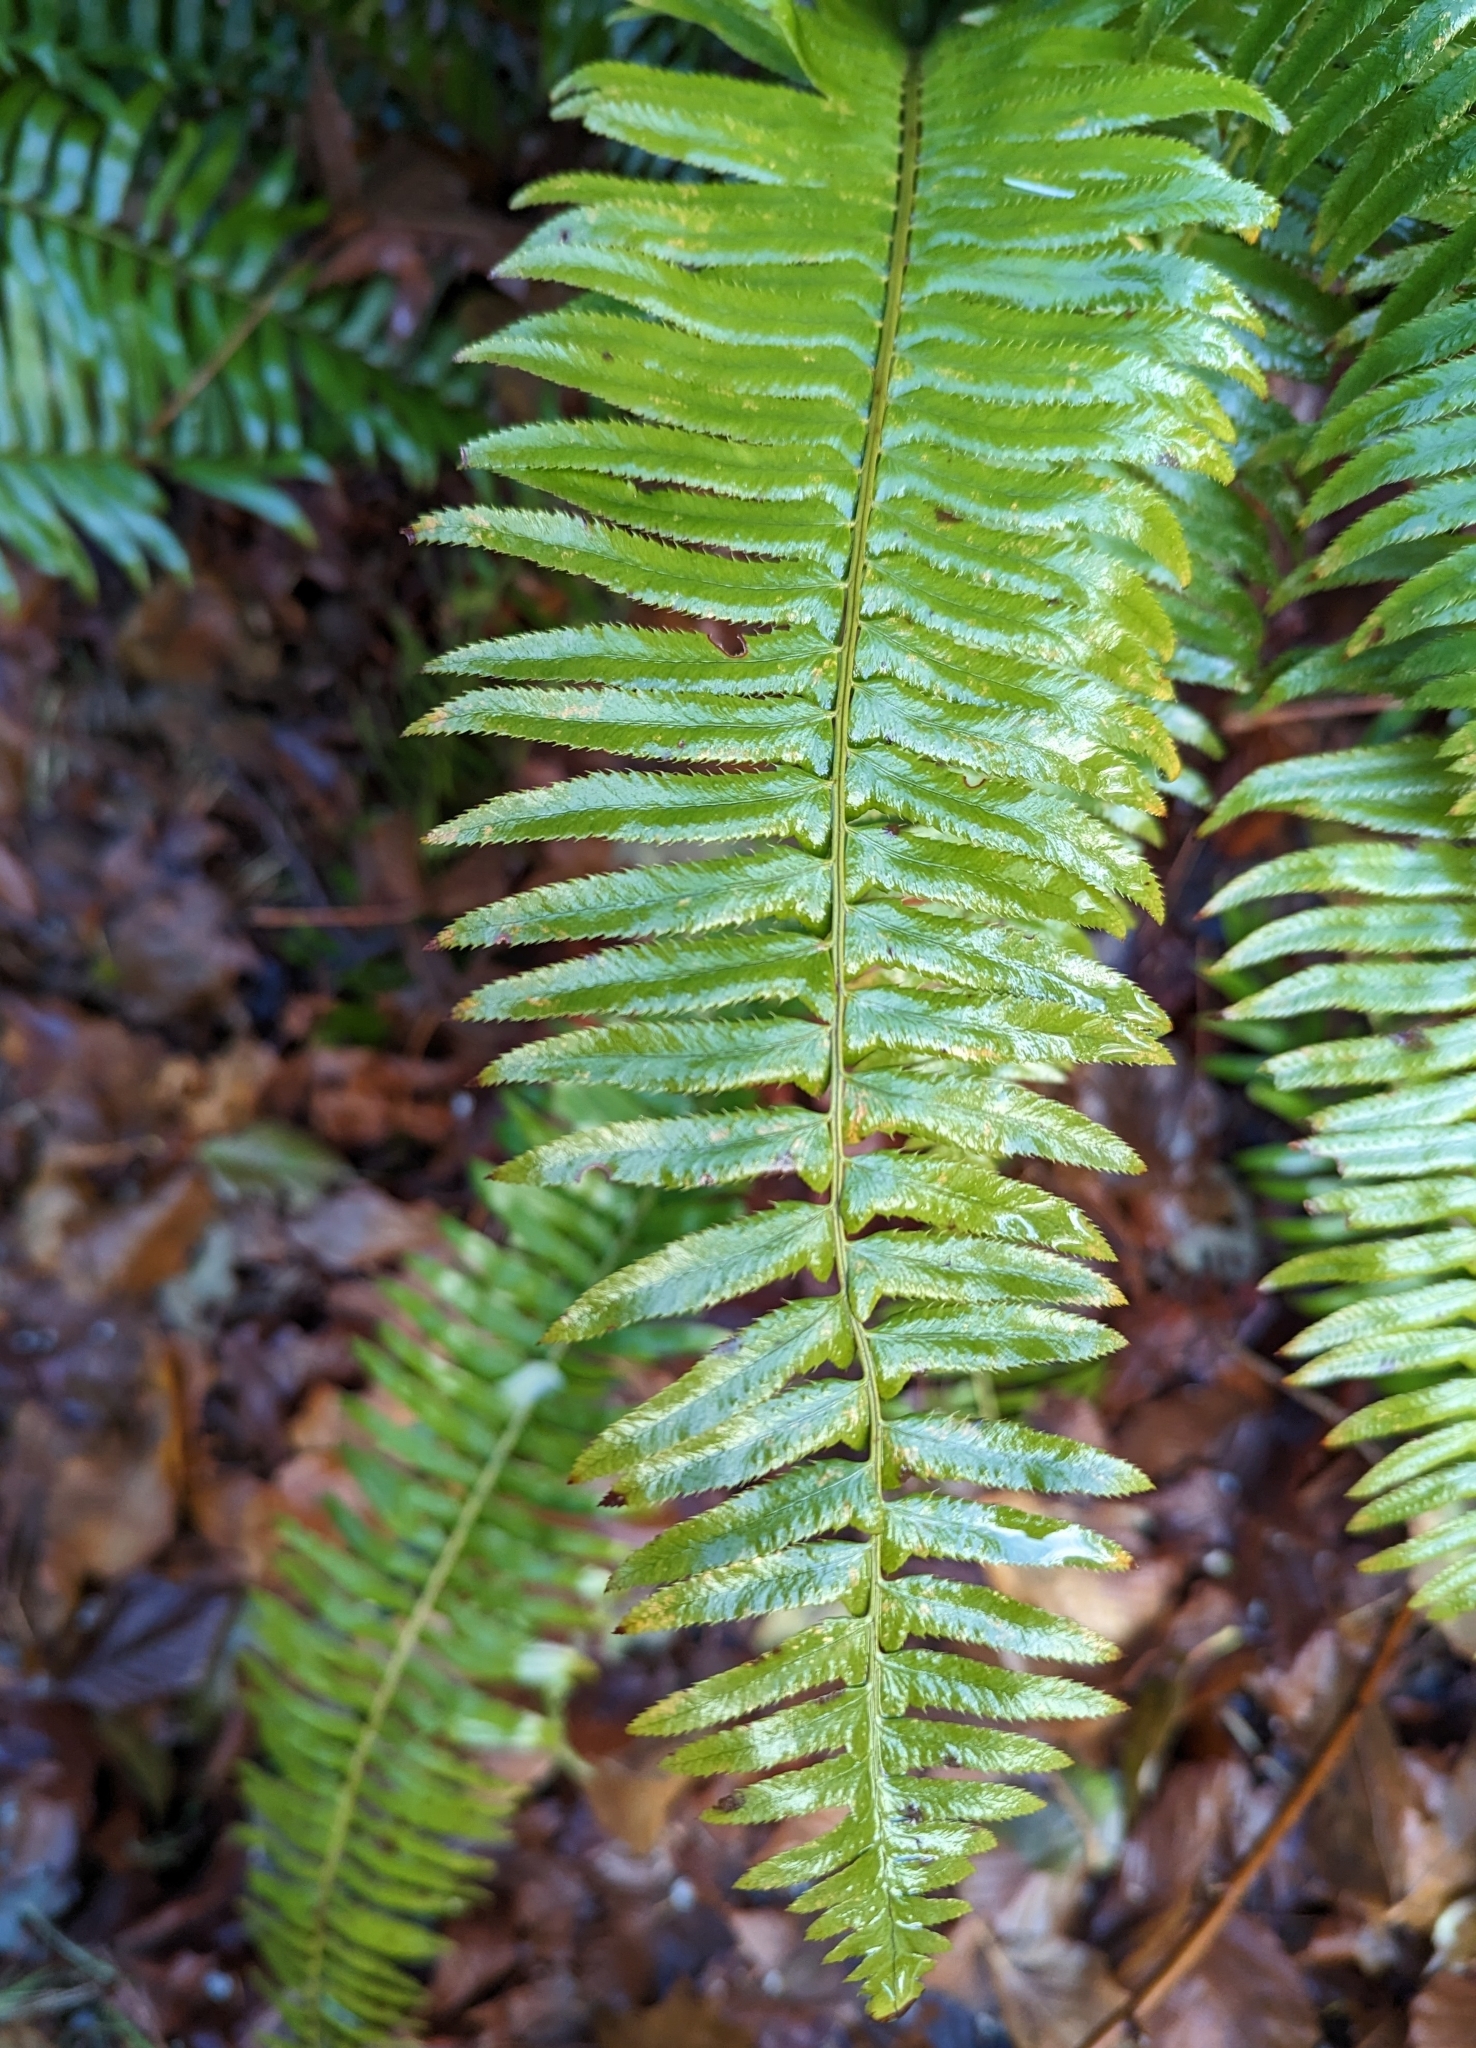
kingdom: Plantae
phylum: Tracheophyta
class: Polypodiopsida
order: Polypodiales
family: Dryopteridaceae
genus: Polystichum
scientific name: Polystichum munitum
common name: Western sword-fern
